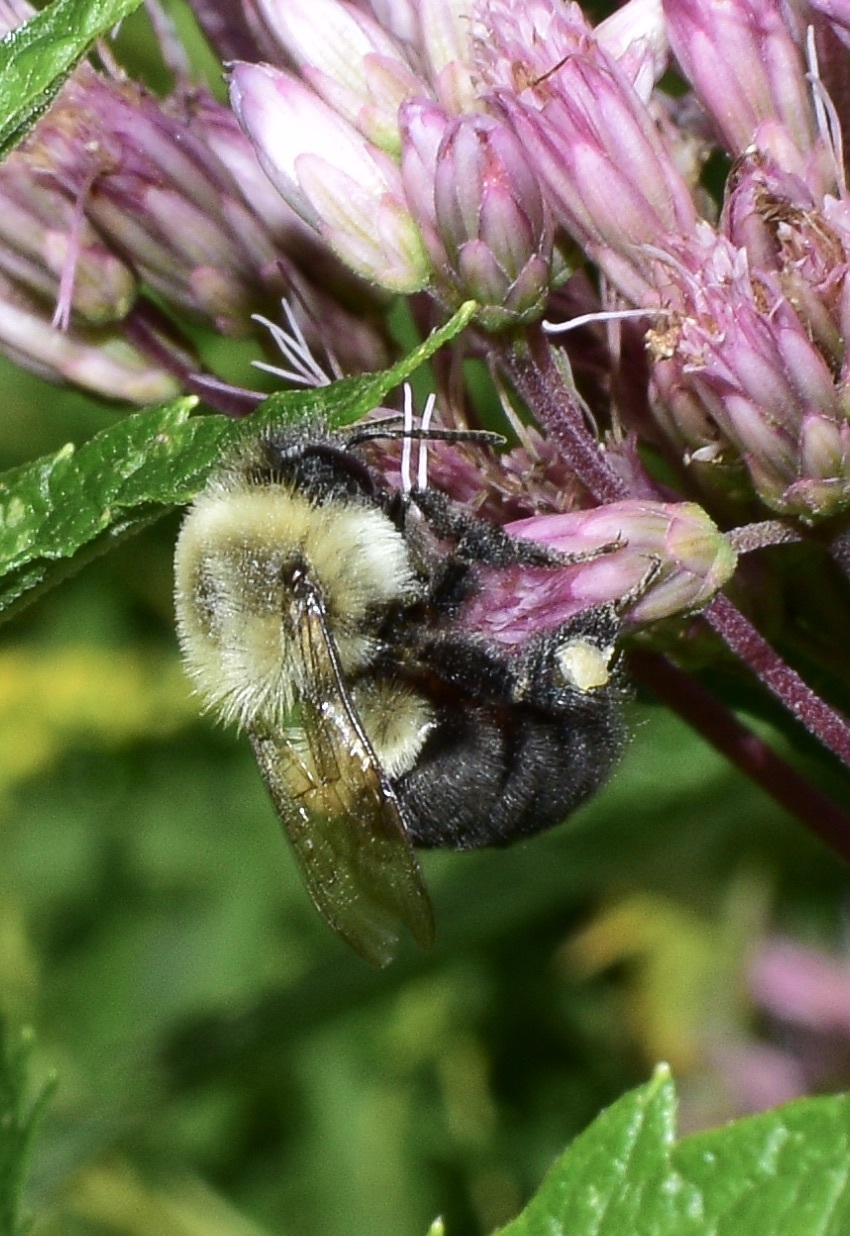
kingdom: Animalia
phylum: Arthropoda
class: Insecta
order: Hymenoptera
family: Apidae
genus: Bombus
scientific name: Bombus impatiens
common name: Common eastern bumble bee
